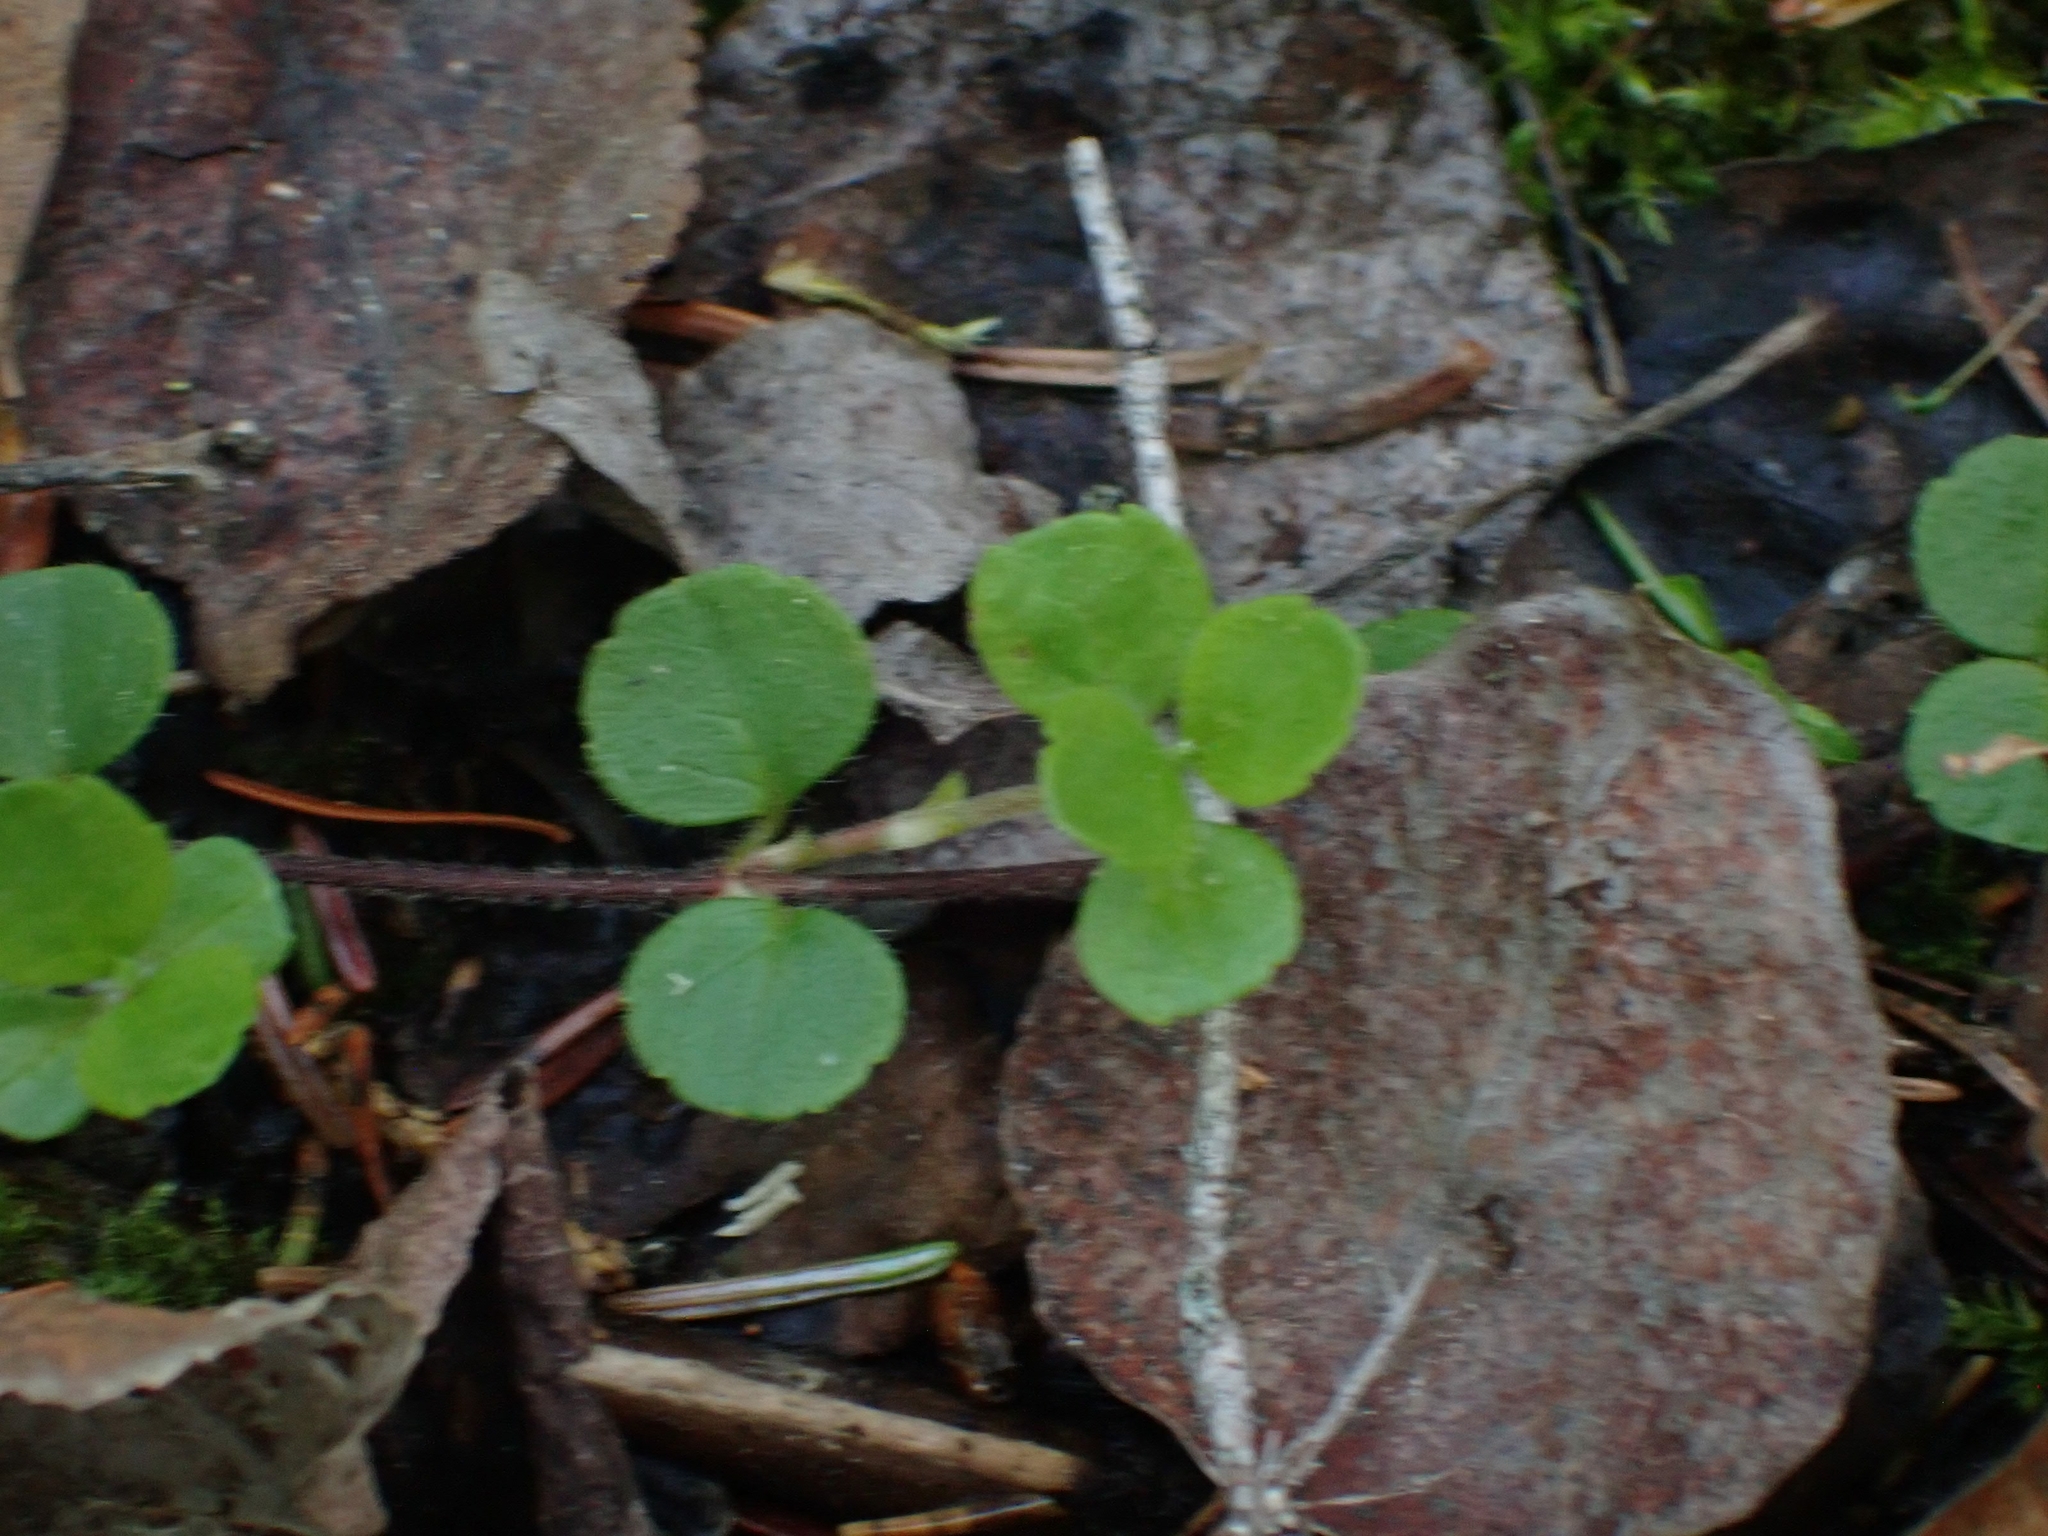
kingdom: Plantae
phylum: Tracheophyta
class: Magnoliopsida
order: Dipsacales
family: Caprifoliaceae
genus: Linnaea
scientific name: Linnaea borealis
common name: Twinflower
